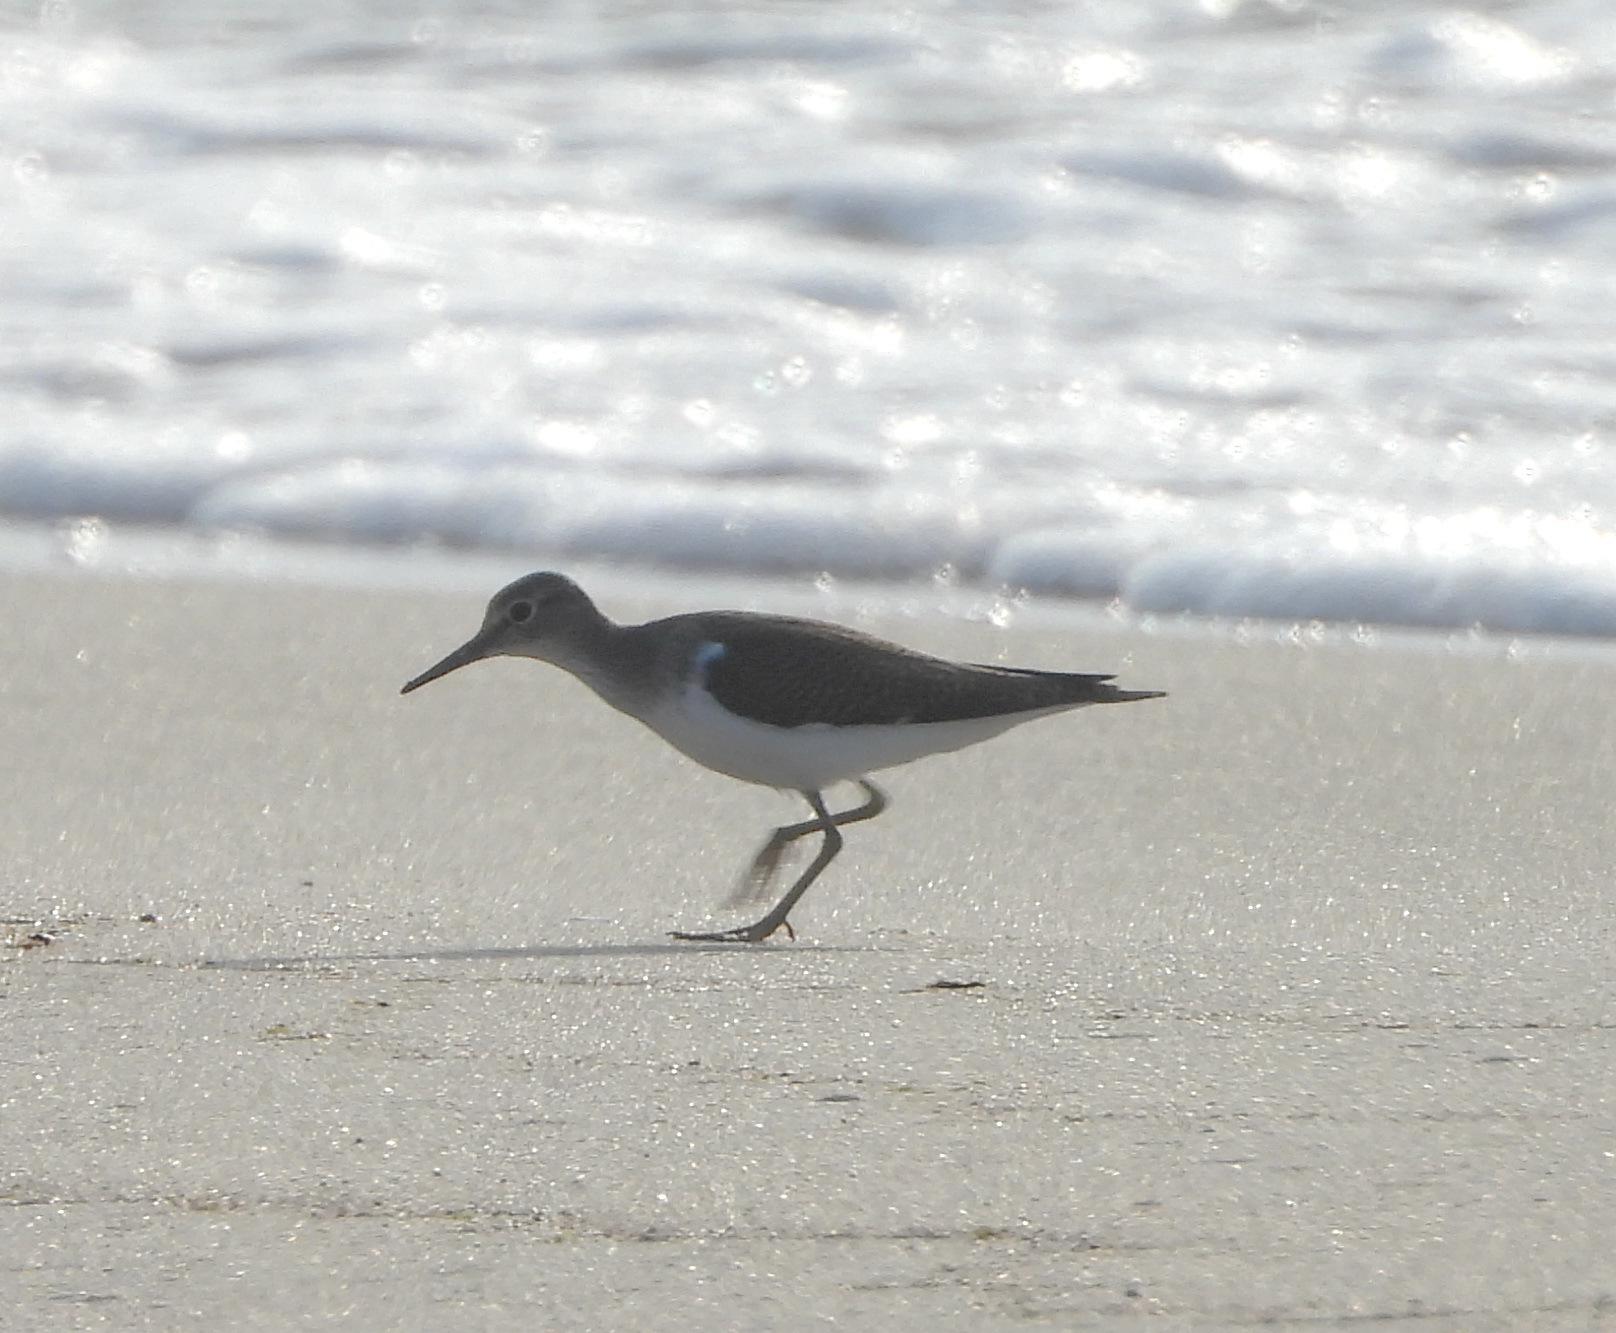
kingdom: Animalia
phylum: Chordata
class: Aves
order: Charadriiformes
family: Scolopacidae
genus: Actitis
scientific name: Actitis hypoleucos
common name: Common sandpiper
